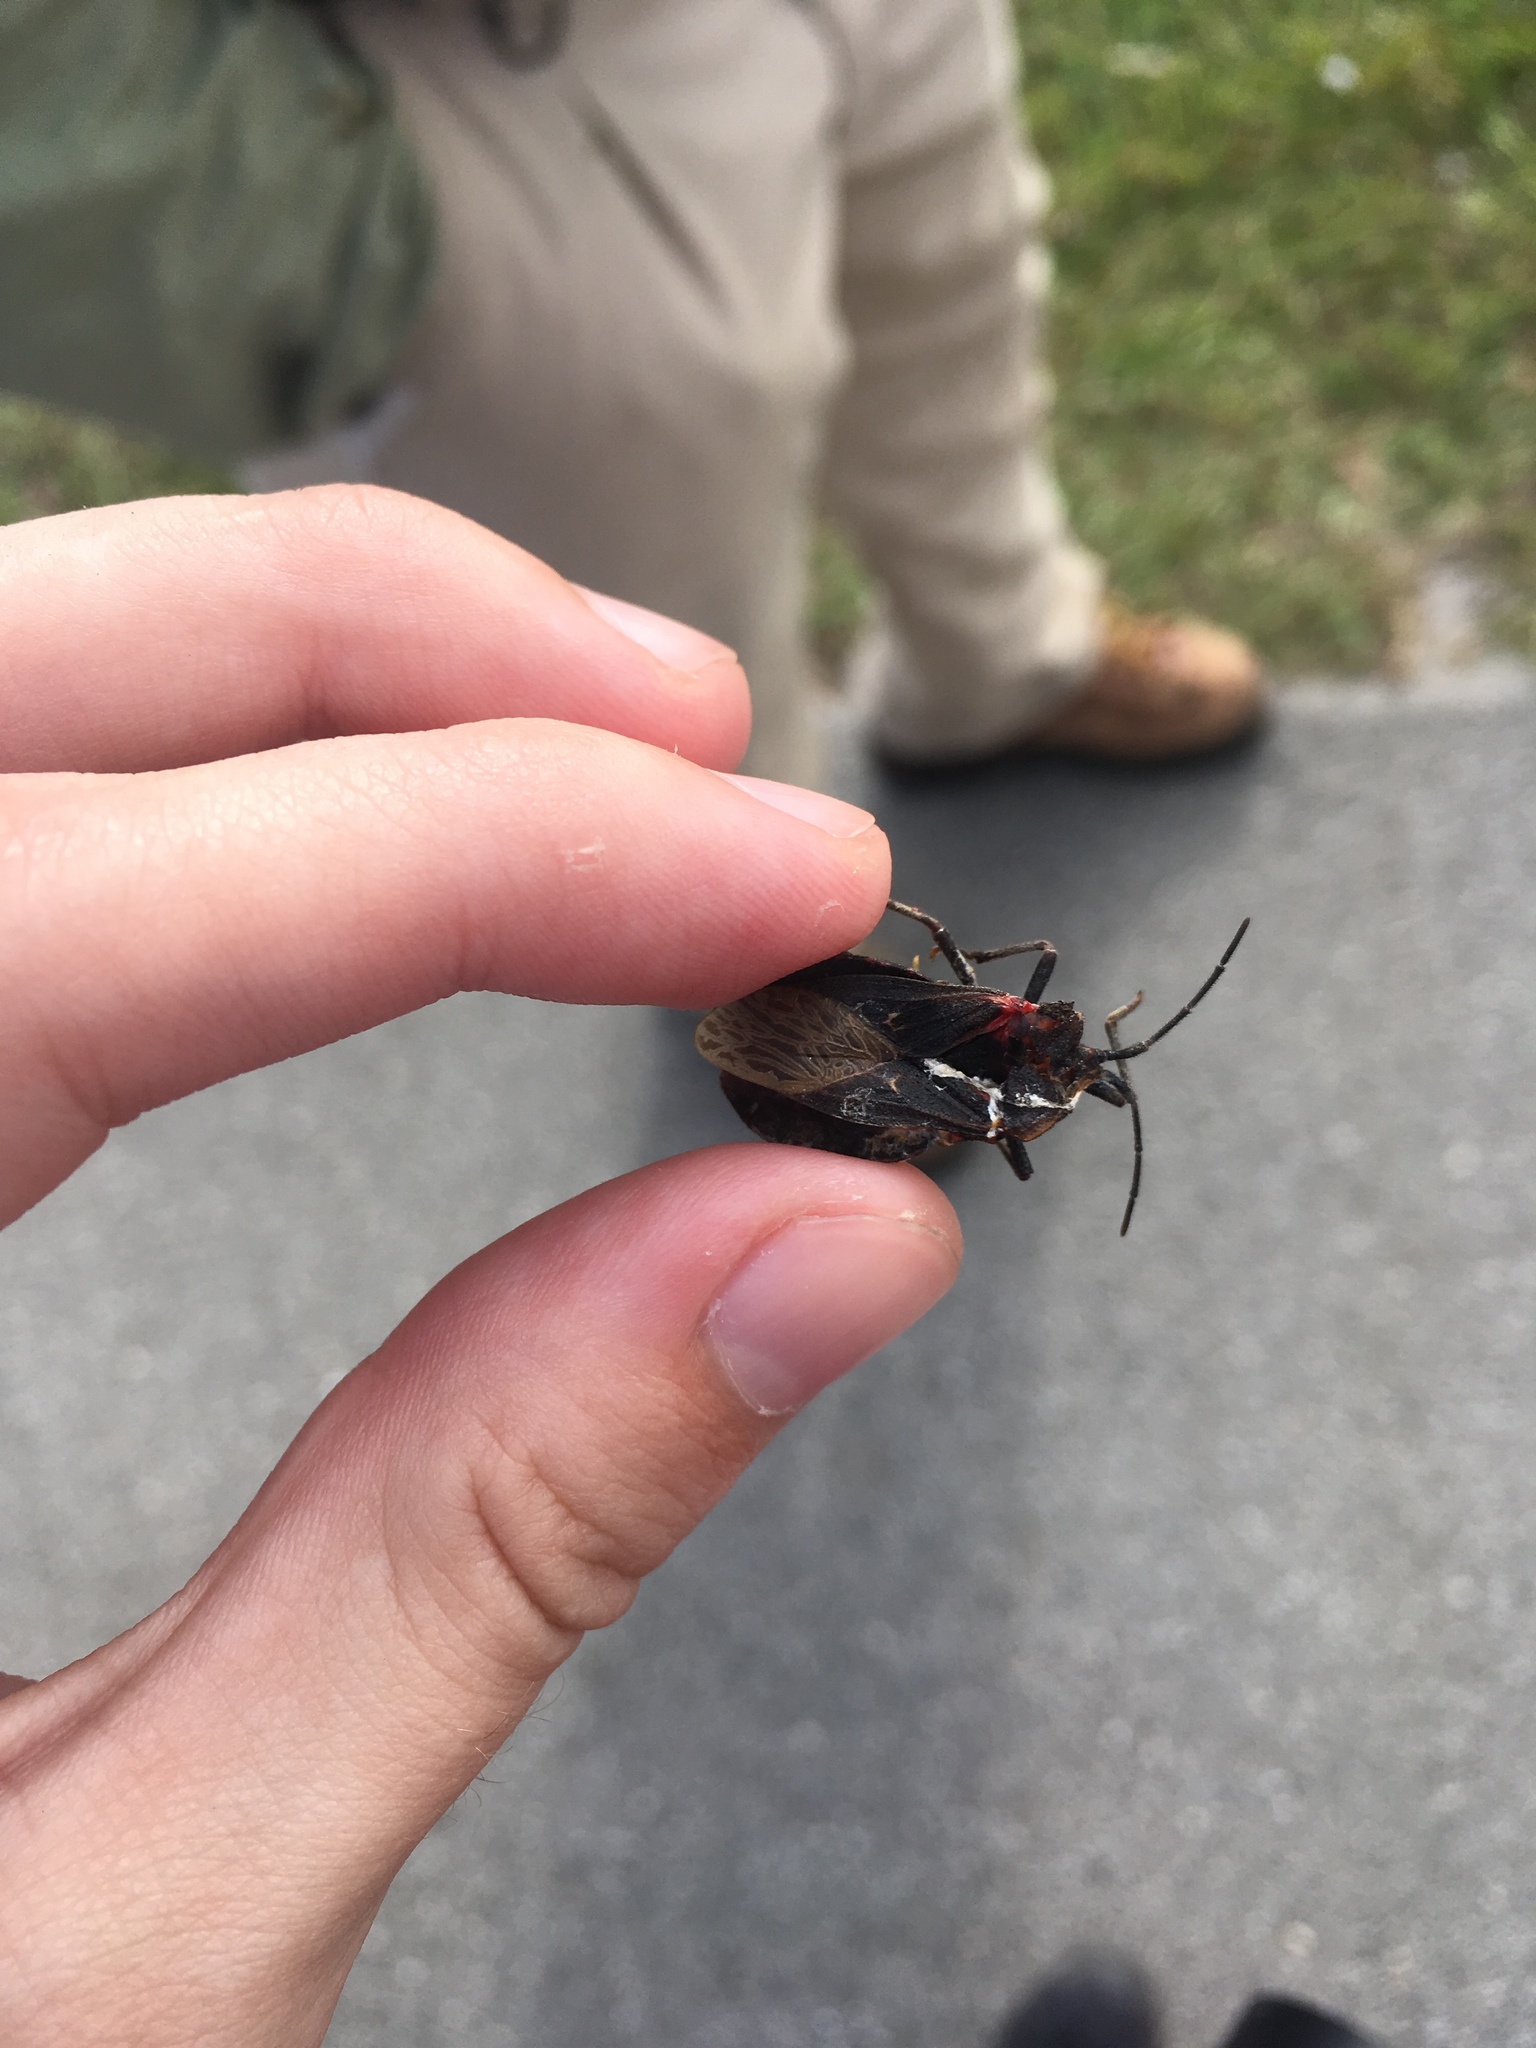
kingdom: Animalia
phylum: Arthropoda
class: Insecta
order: Hemiptera
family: Coreidae
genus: Spartocera
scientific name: Spartocera batatas
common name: Giant sweetpotato bug
